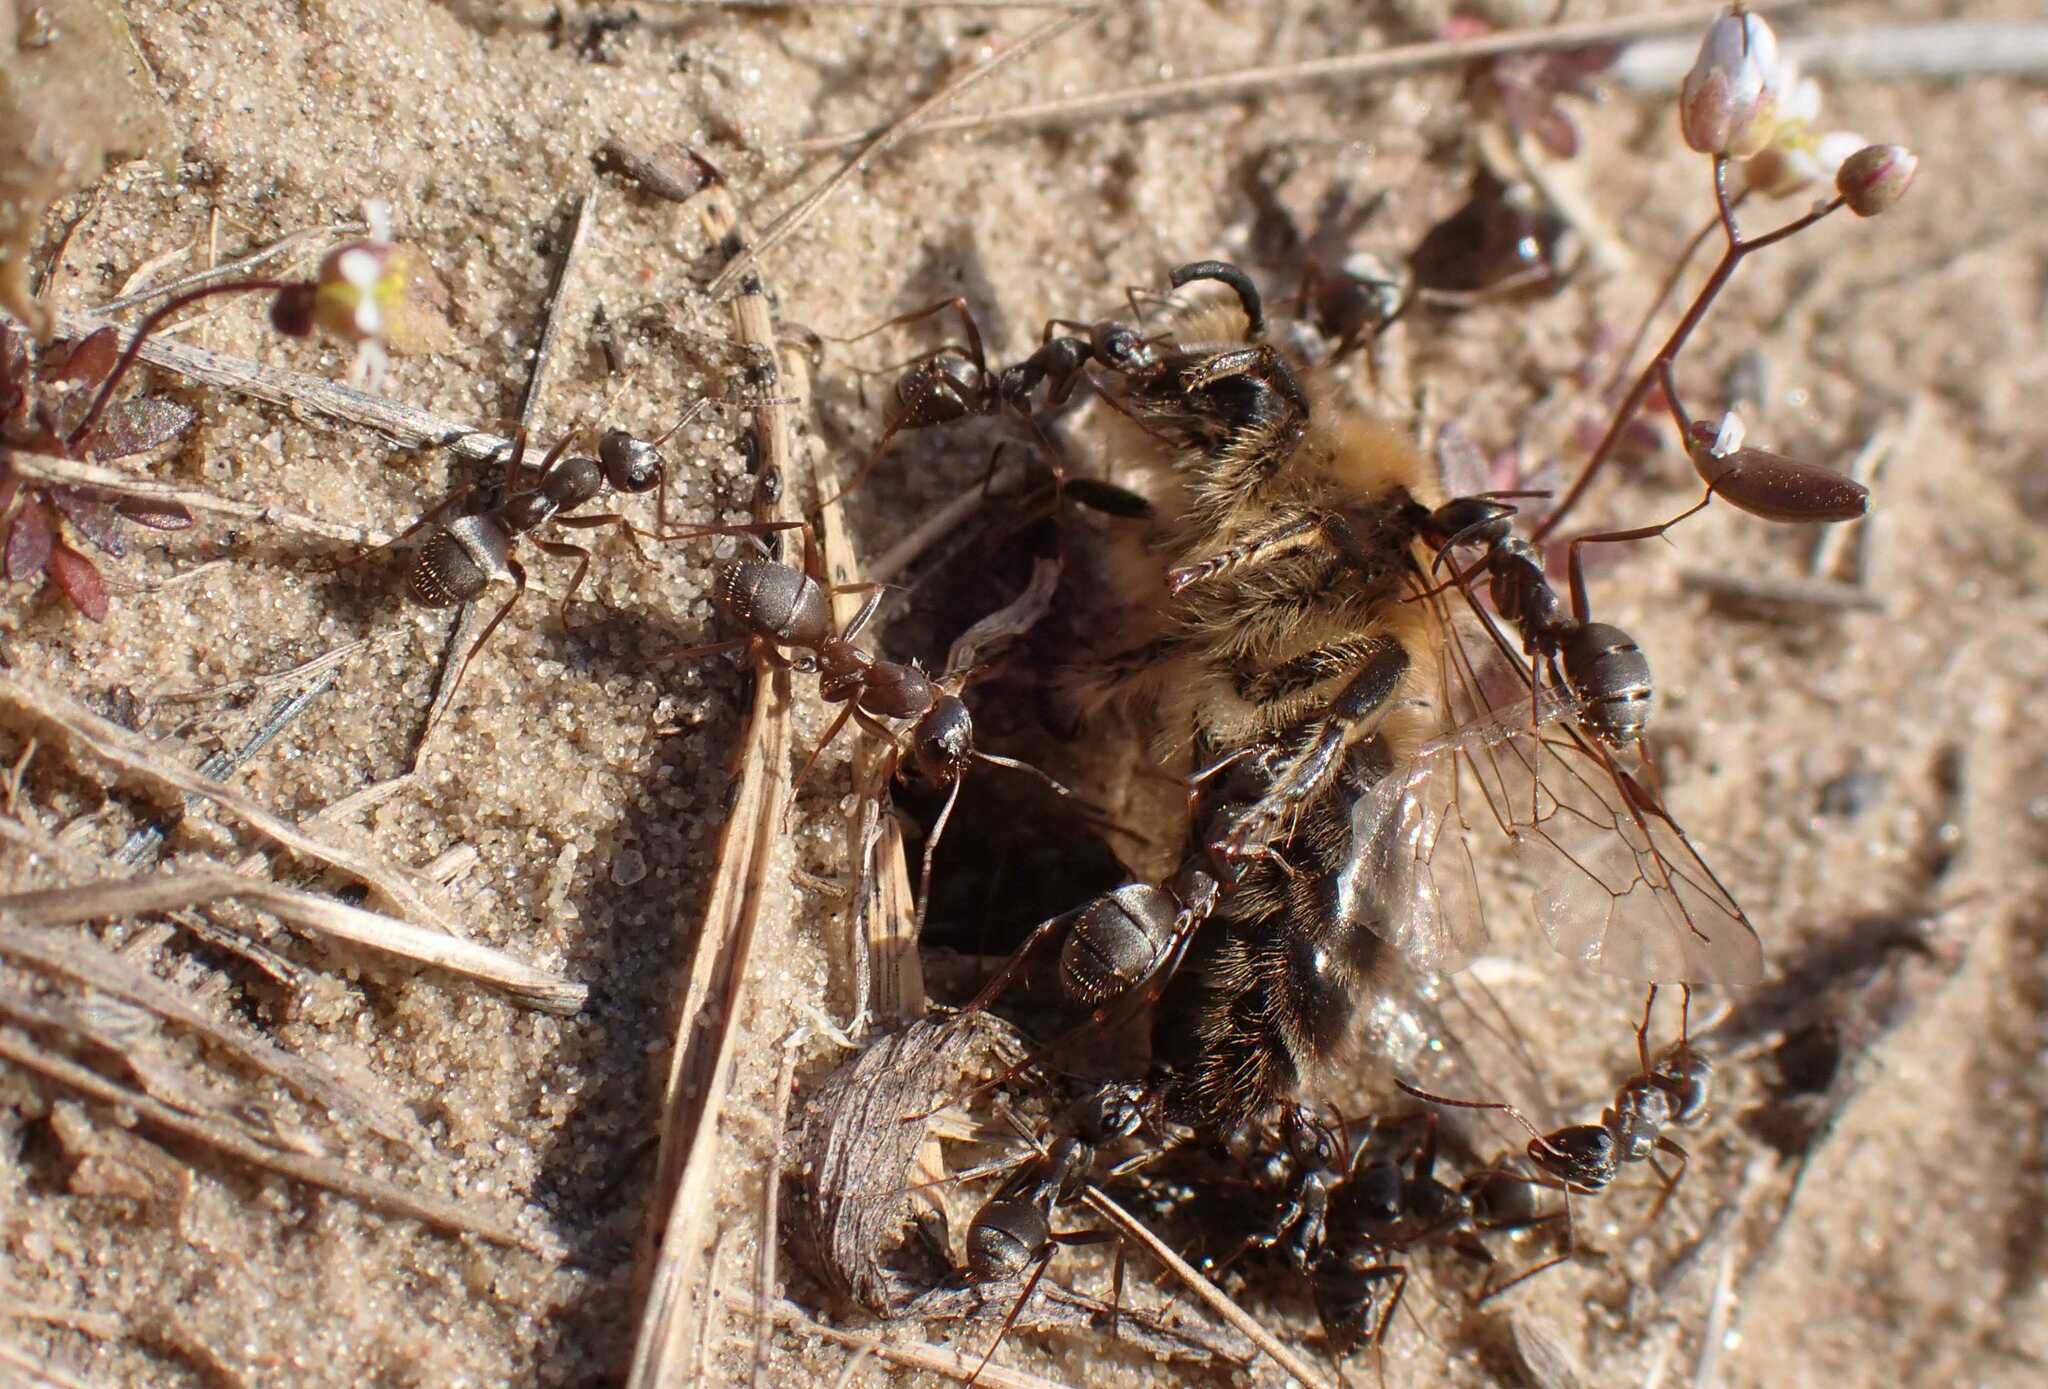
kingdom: Animalia
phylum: Arthropoda
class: Insecta
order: Hymenoptera
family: Formicidae
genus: Formica
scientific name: Formica cinerea
